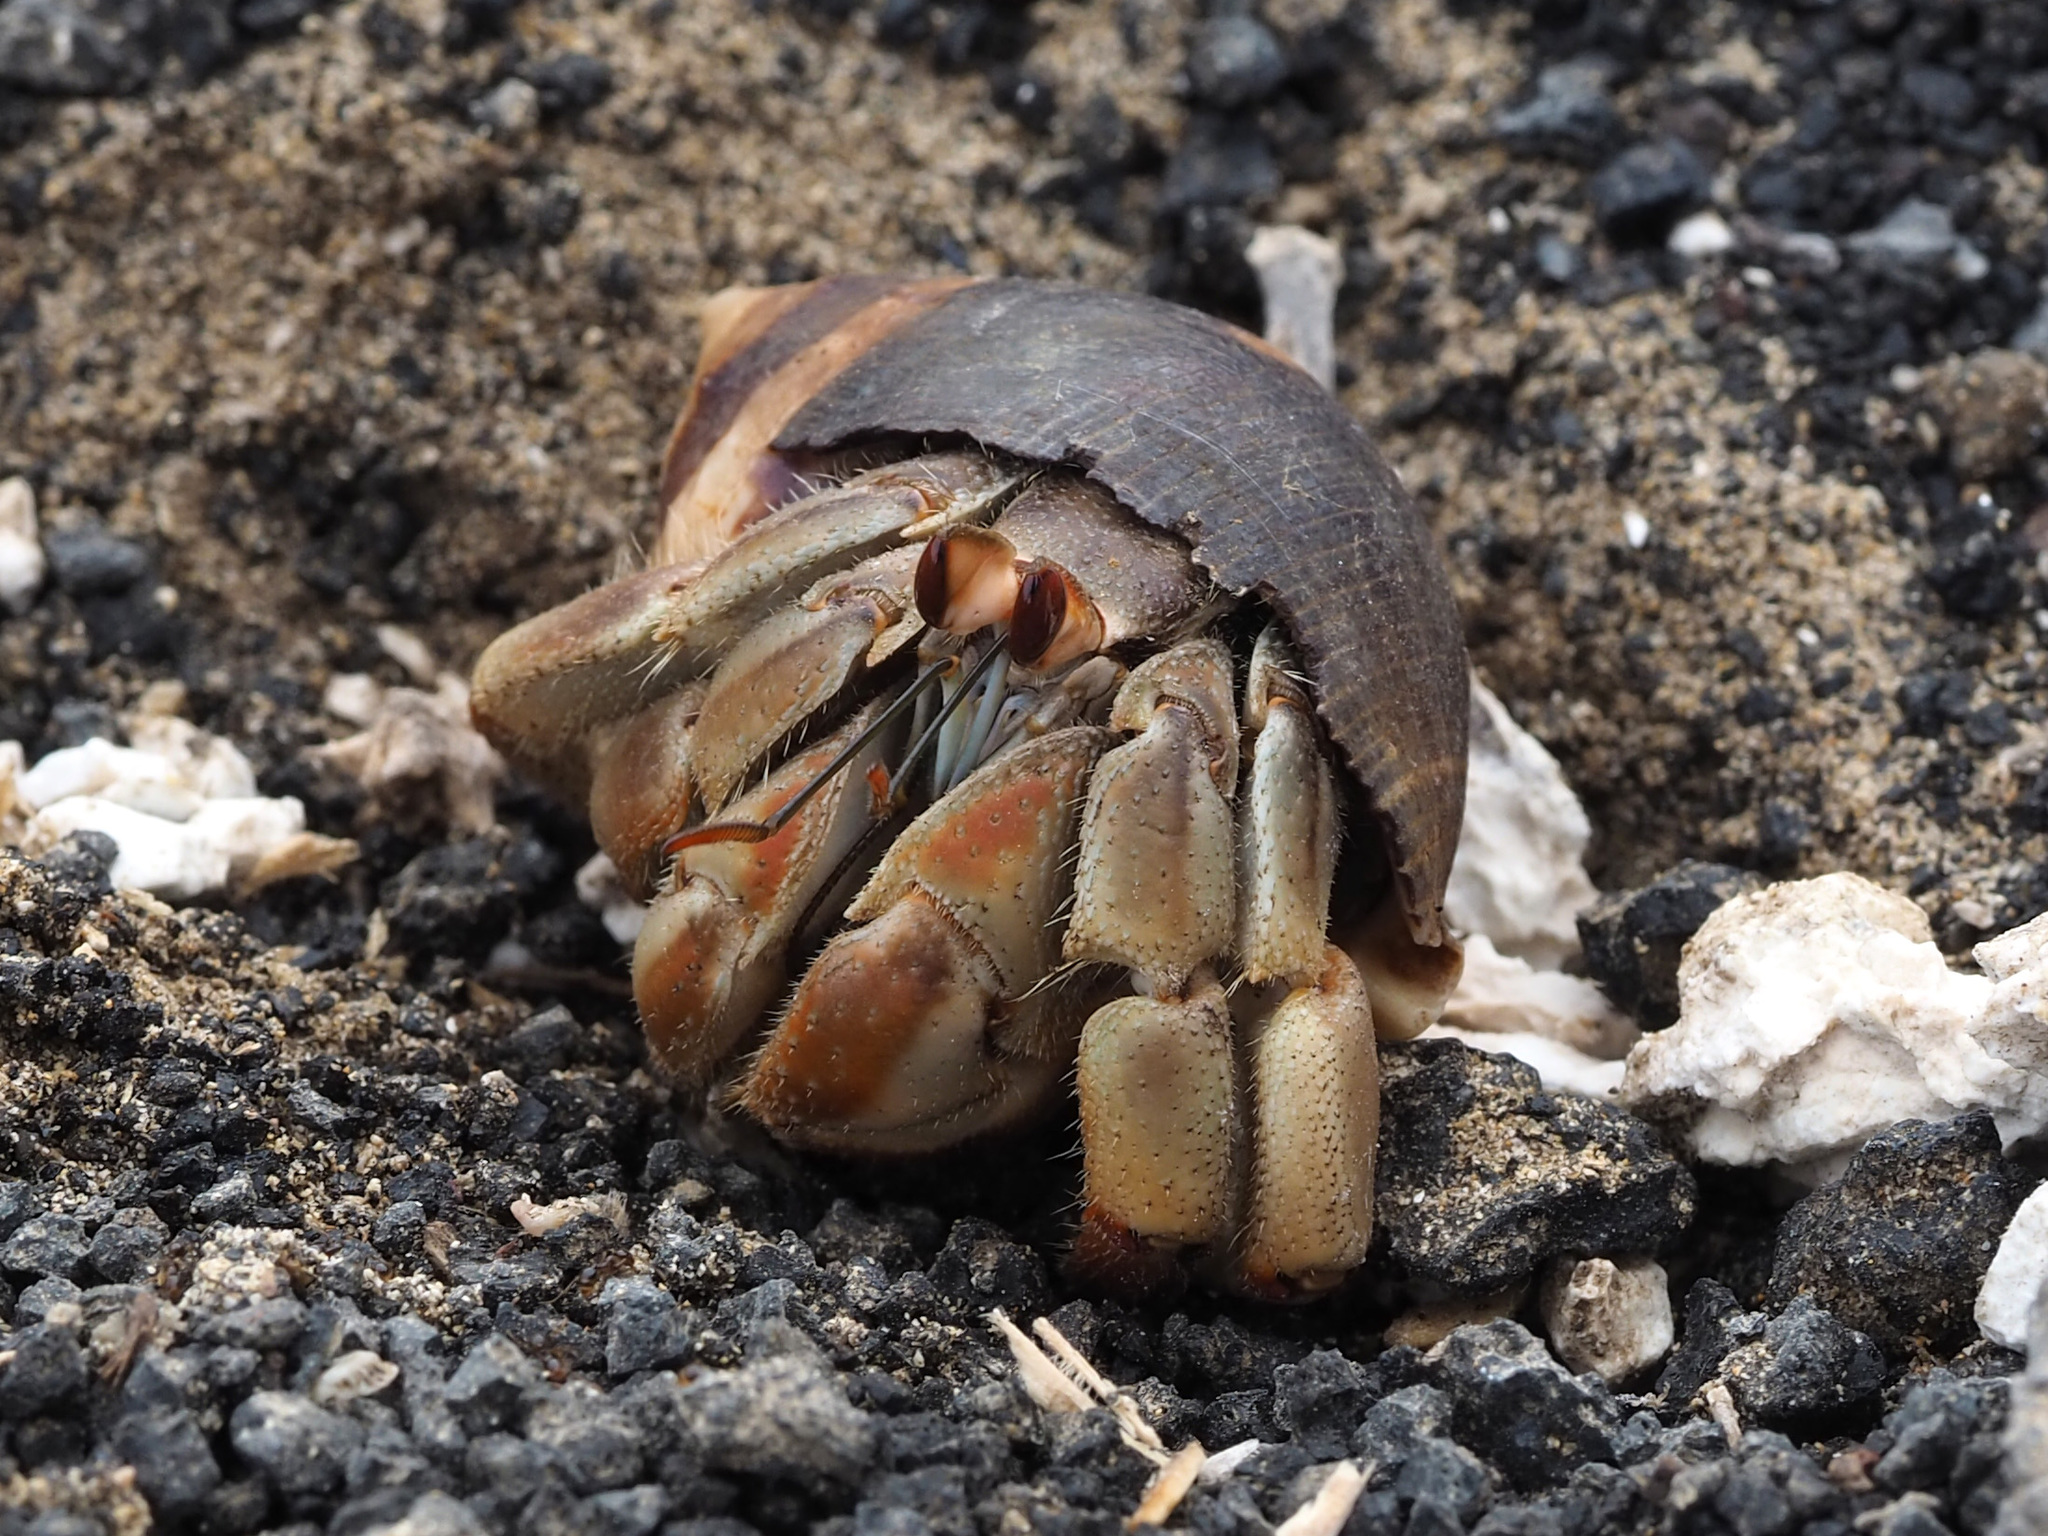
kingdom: Animalia
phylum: Arthropoda
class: Malacostraca
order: Decapoda
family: Coenobitidae
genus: Coenobita
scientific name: Coenobita compressus
